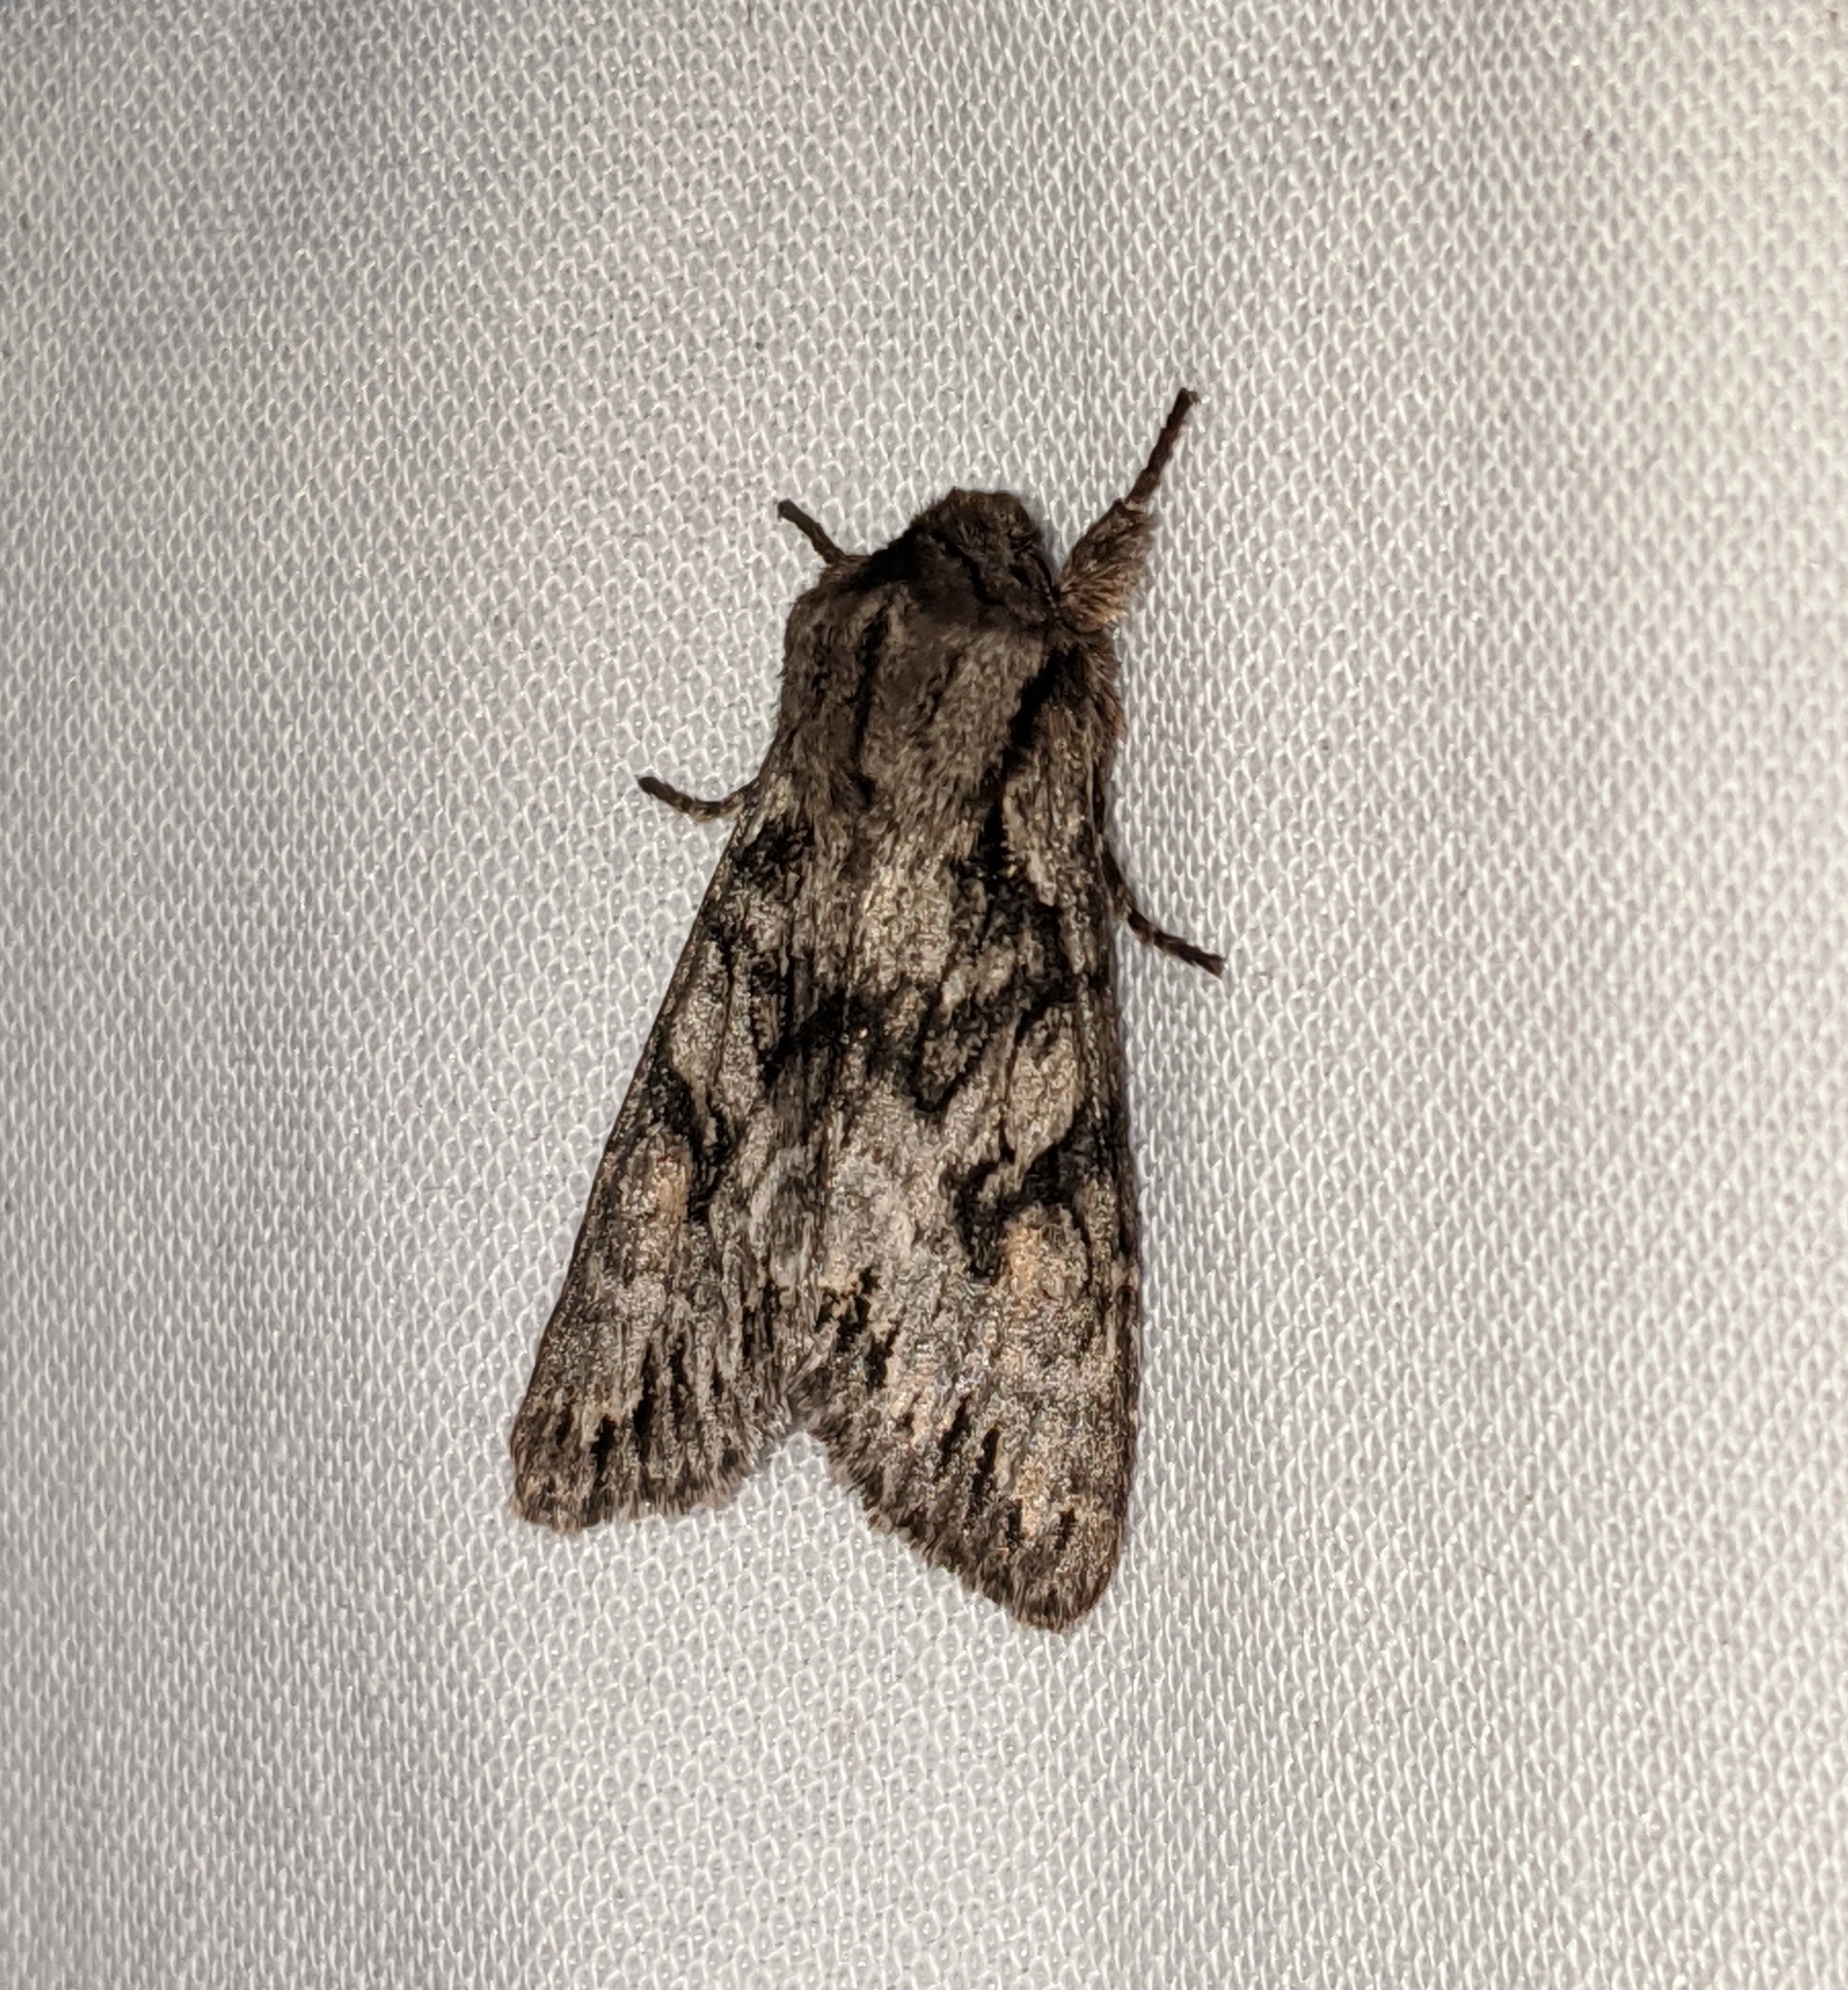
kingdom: Animalia
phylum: Arthropoda
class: Insecta
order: Lepidoptera
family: Noctuidae
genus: Egira
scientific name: Egira simplex
